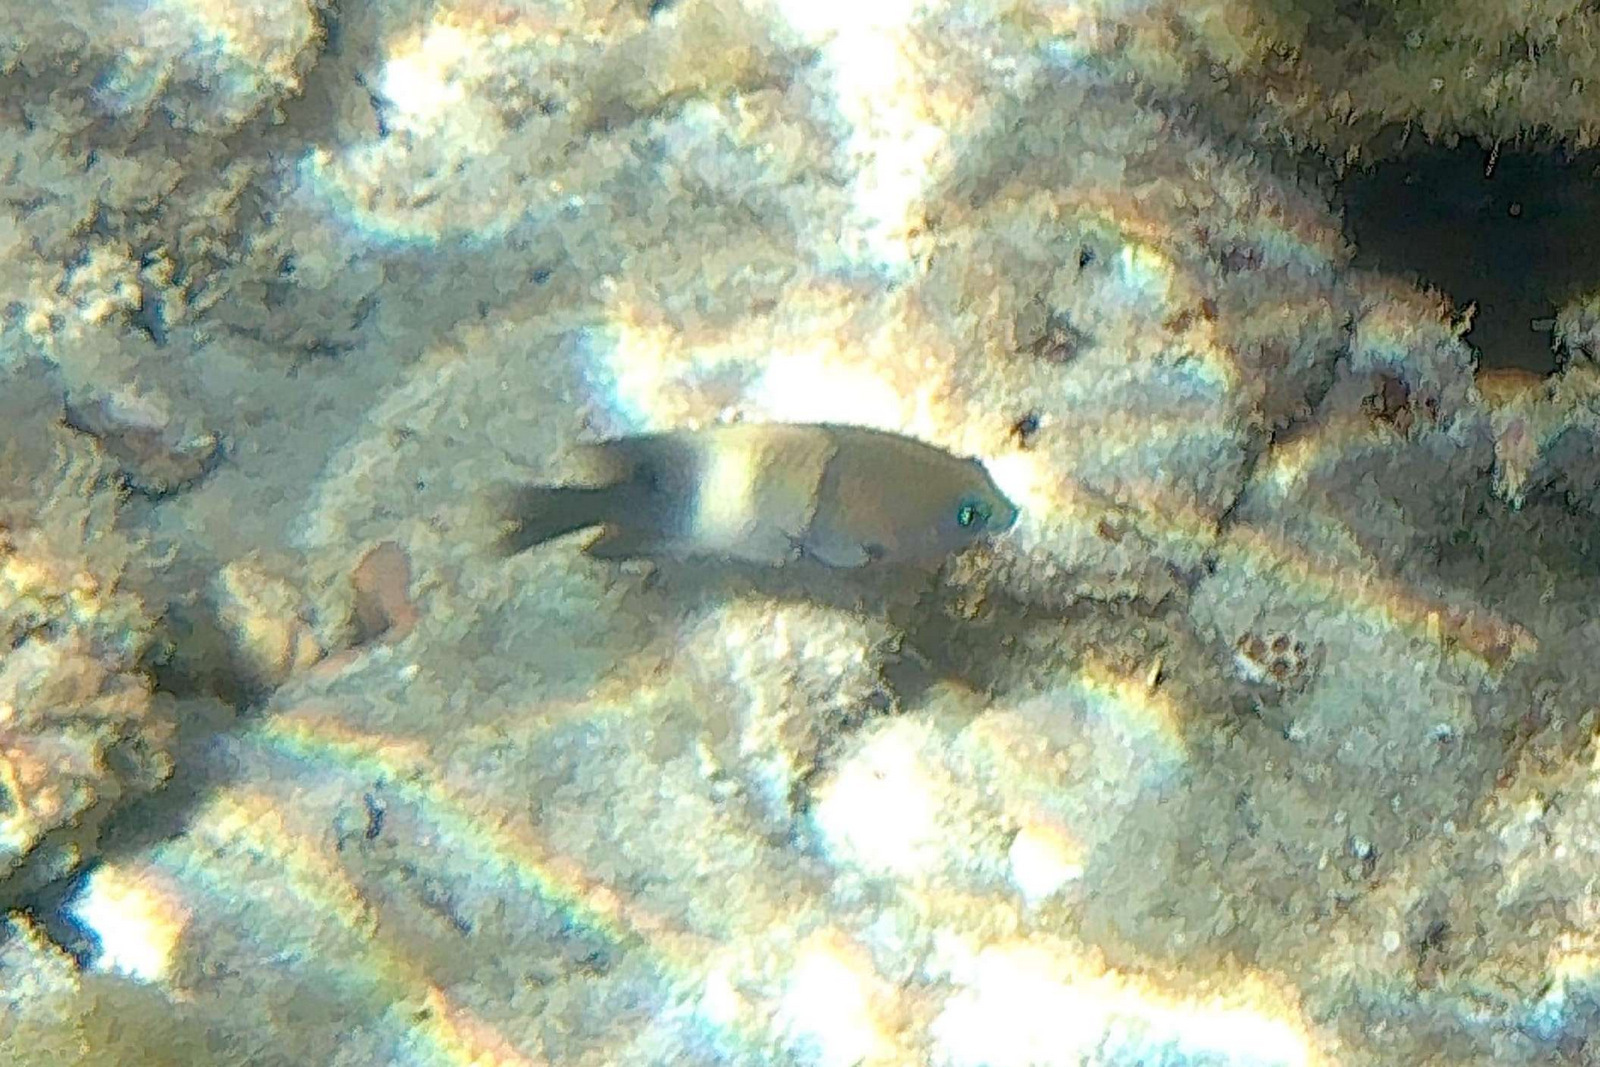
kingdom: Animalia
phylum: Chordata
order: Perciformes
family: Pomacentridae
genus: Stegastes
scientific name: Stegastes albifasciatus
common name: Whitebar gregory
